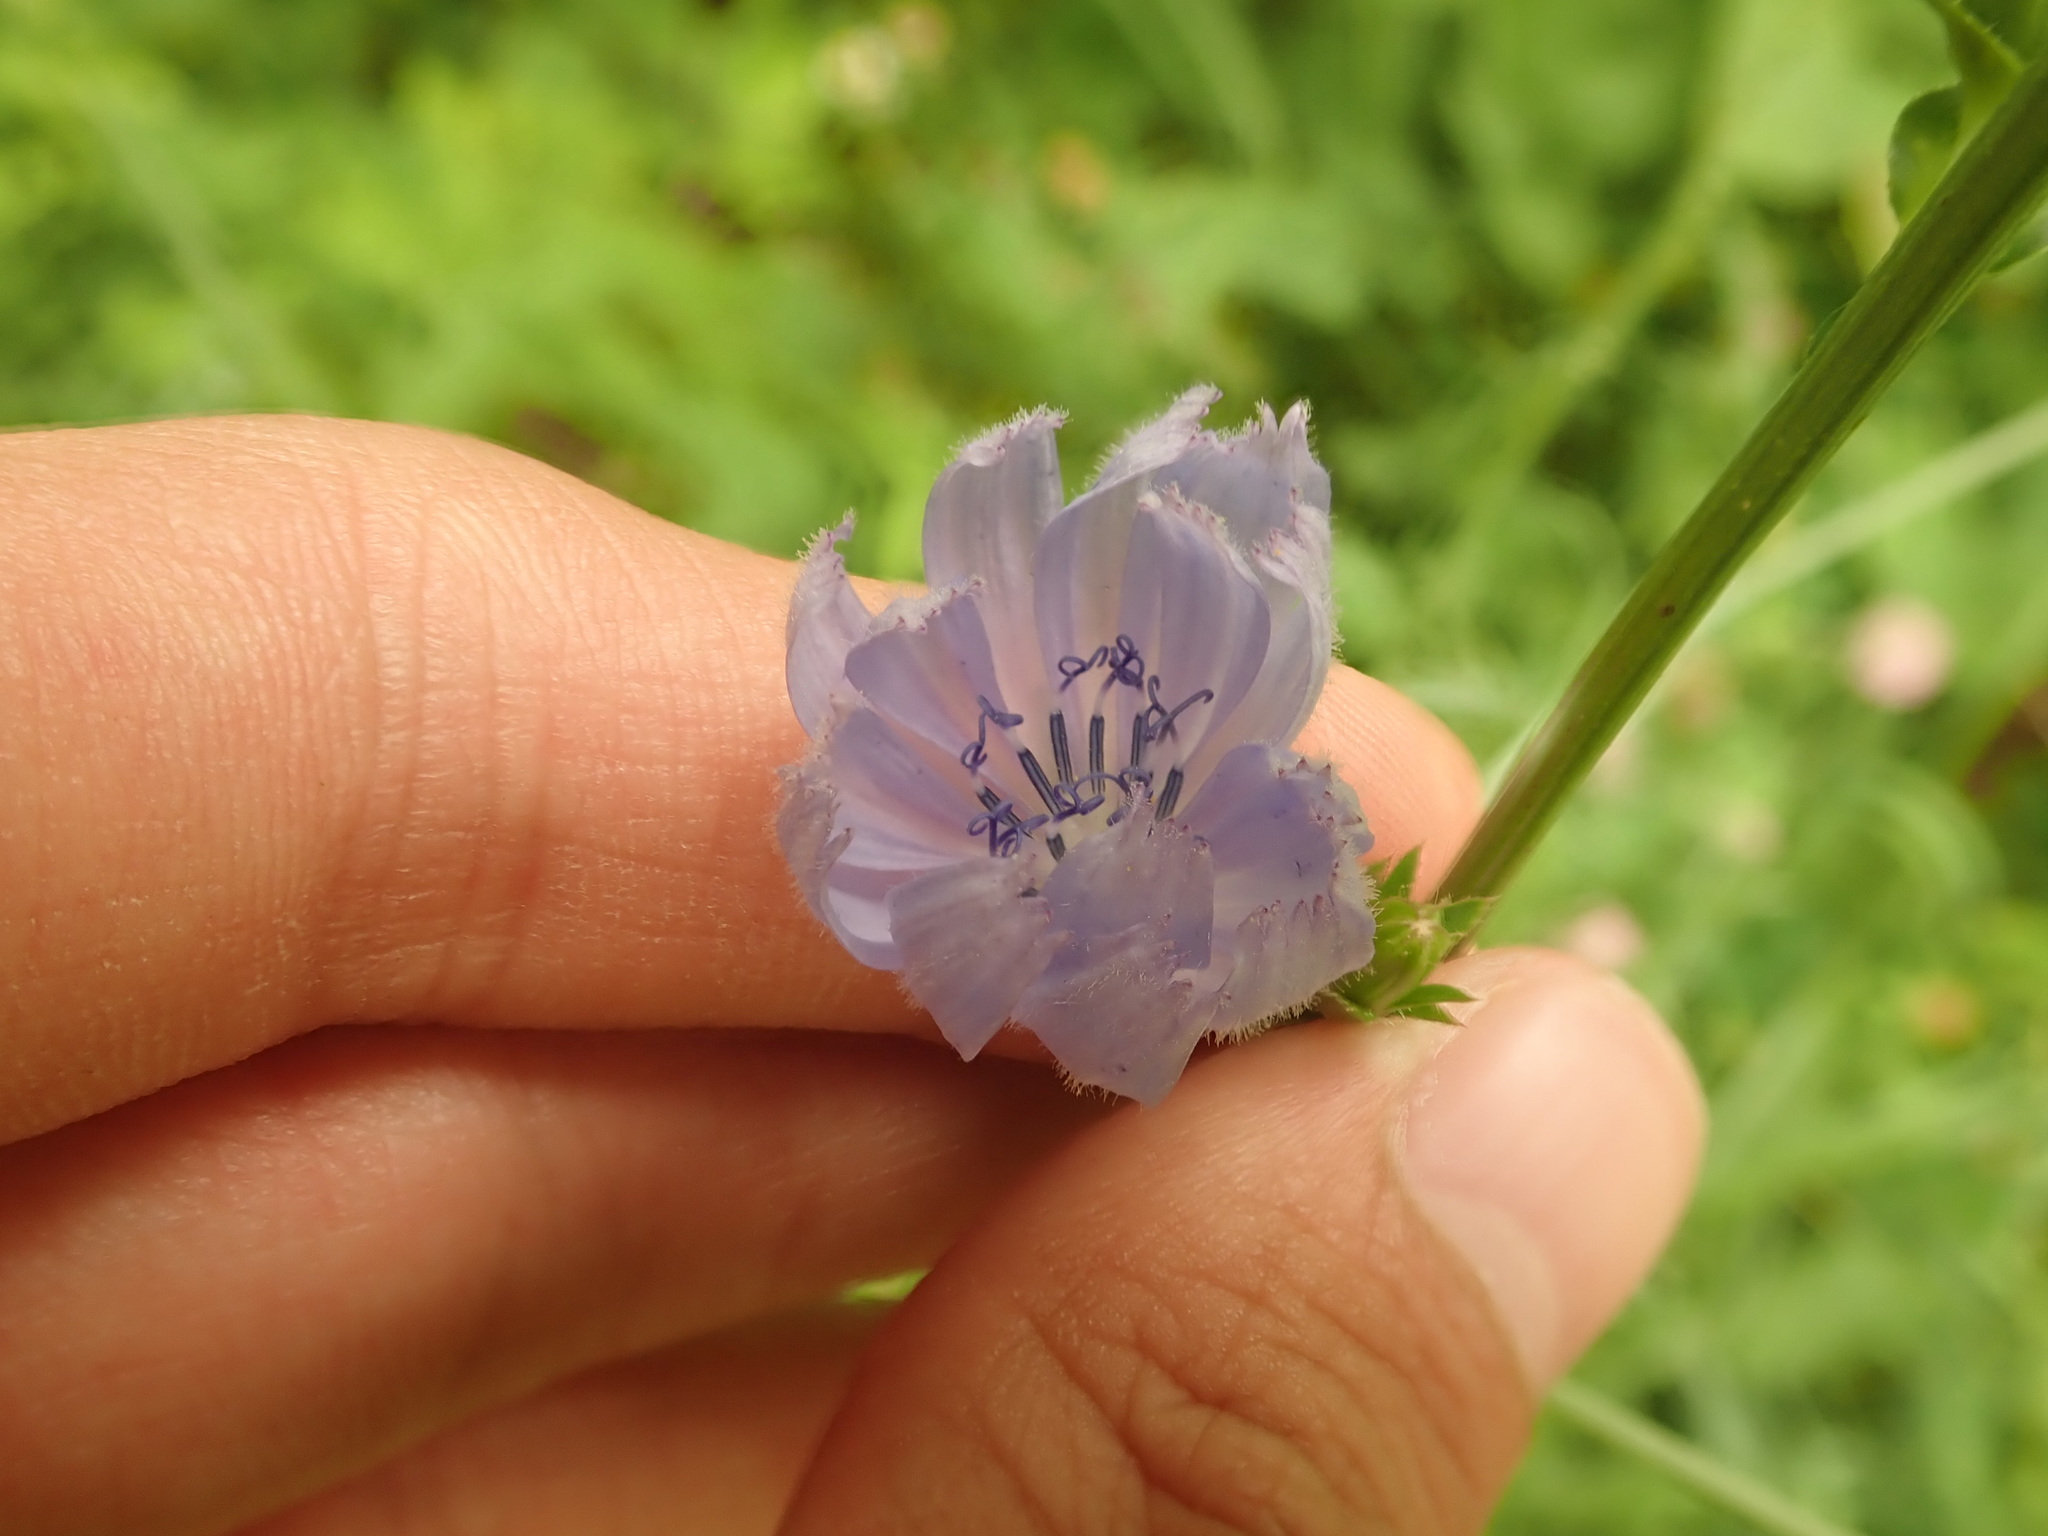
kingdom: Plantae
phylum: Tracheophyta
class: Magnoliopsida
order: Asterales
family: Asteraceae
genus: Cichorium
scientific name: Cichorium intybus
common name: Chicory
